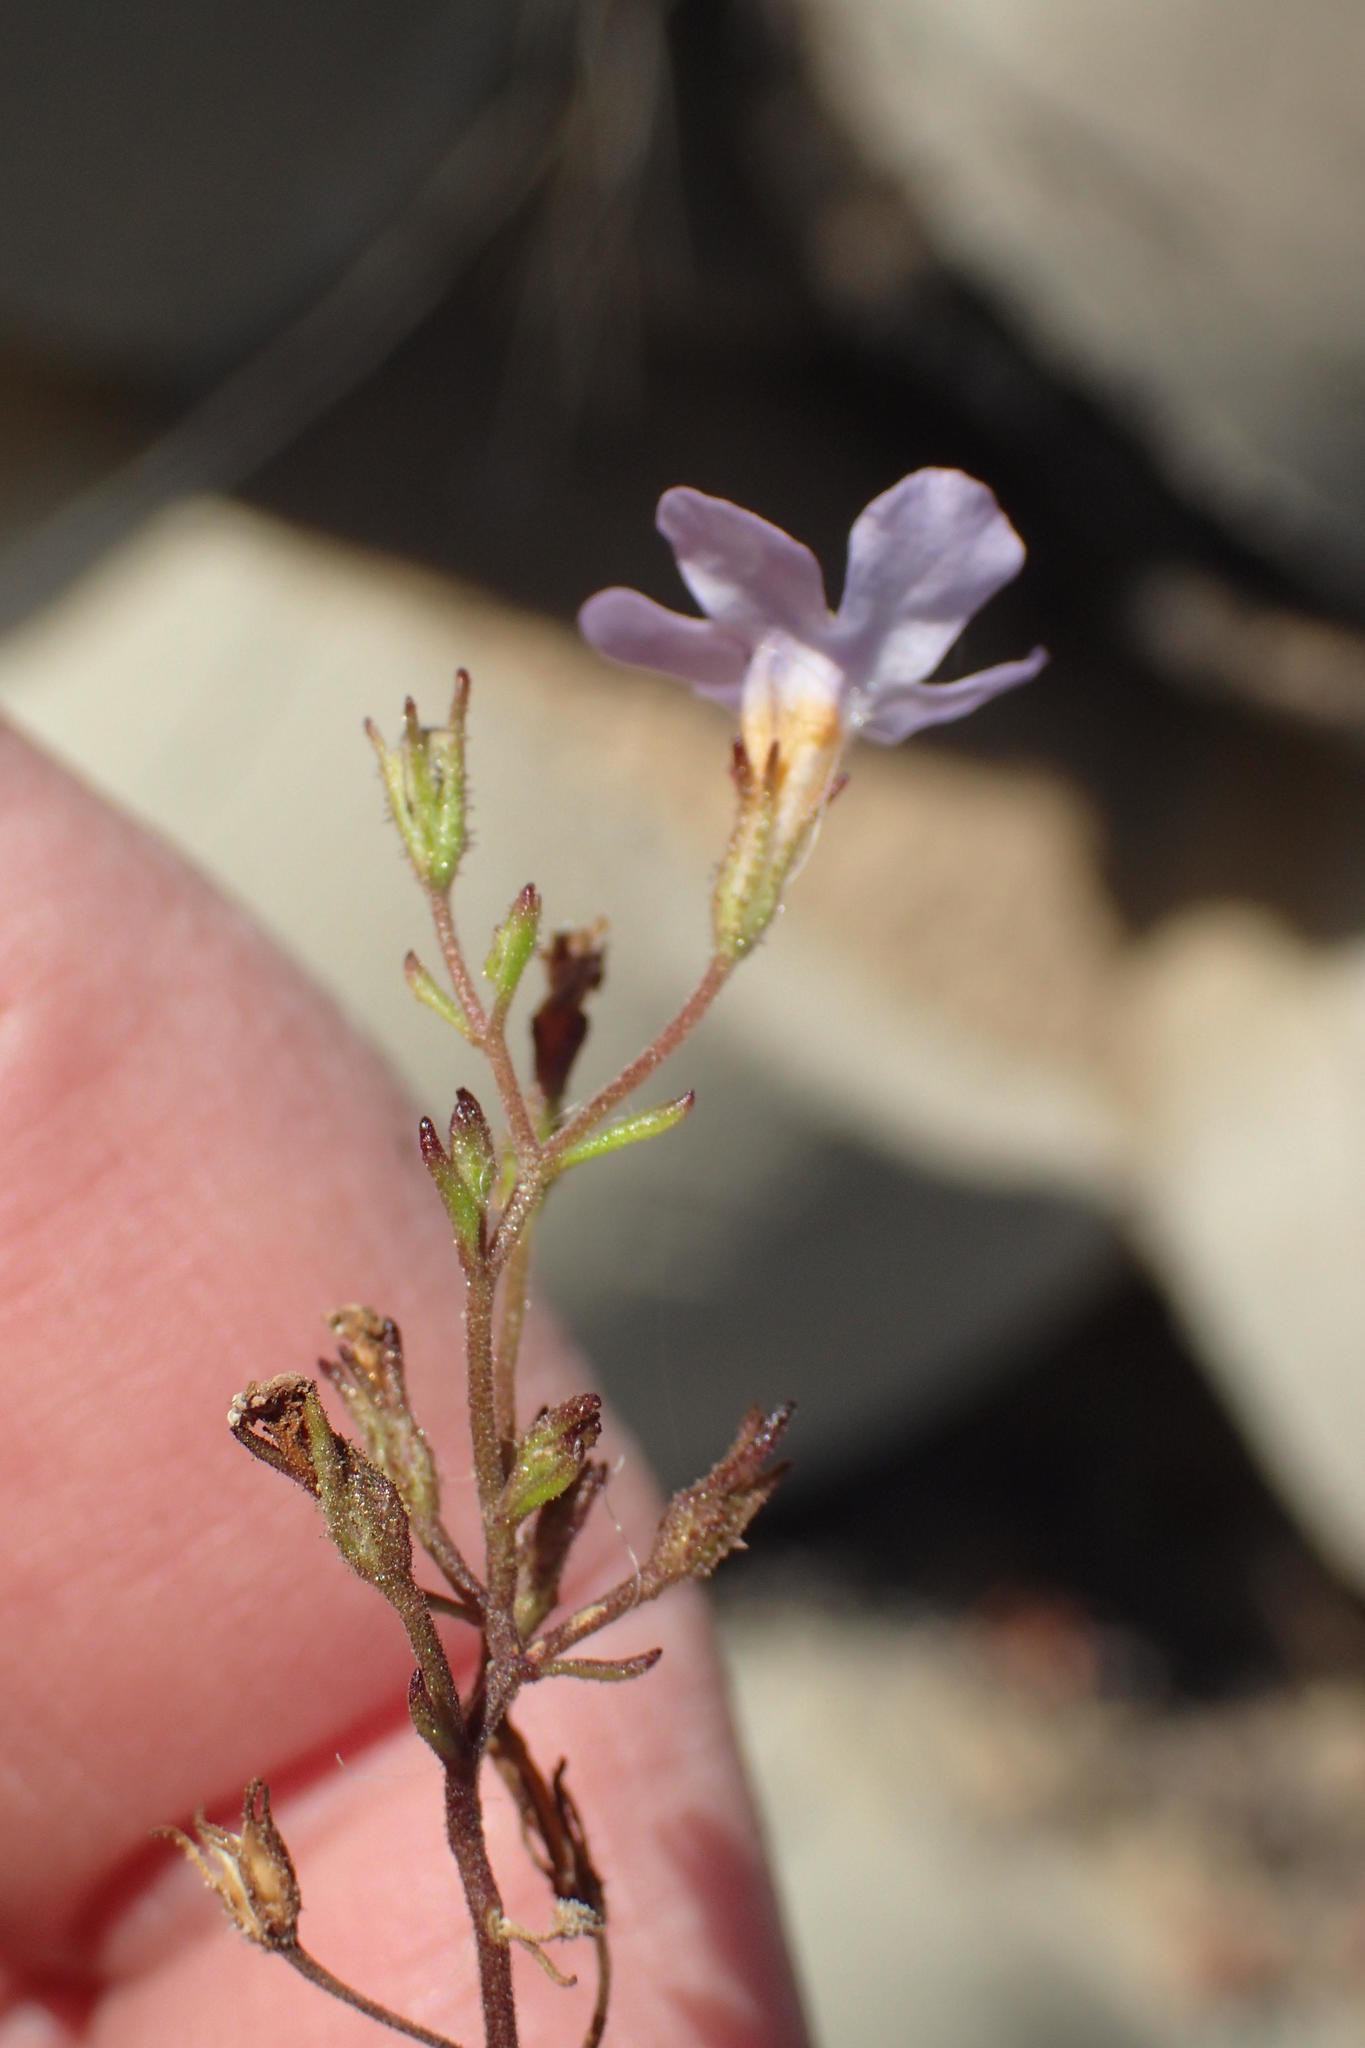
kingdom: Plantae
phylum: Tracheophyta
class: Magnoliopsida
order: Lamiales
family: Scrophulariaceae
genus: Chaenostoma
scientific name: Chaenostoma polyanthum
